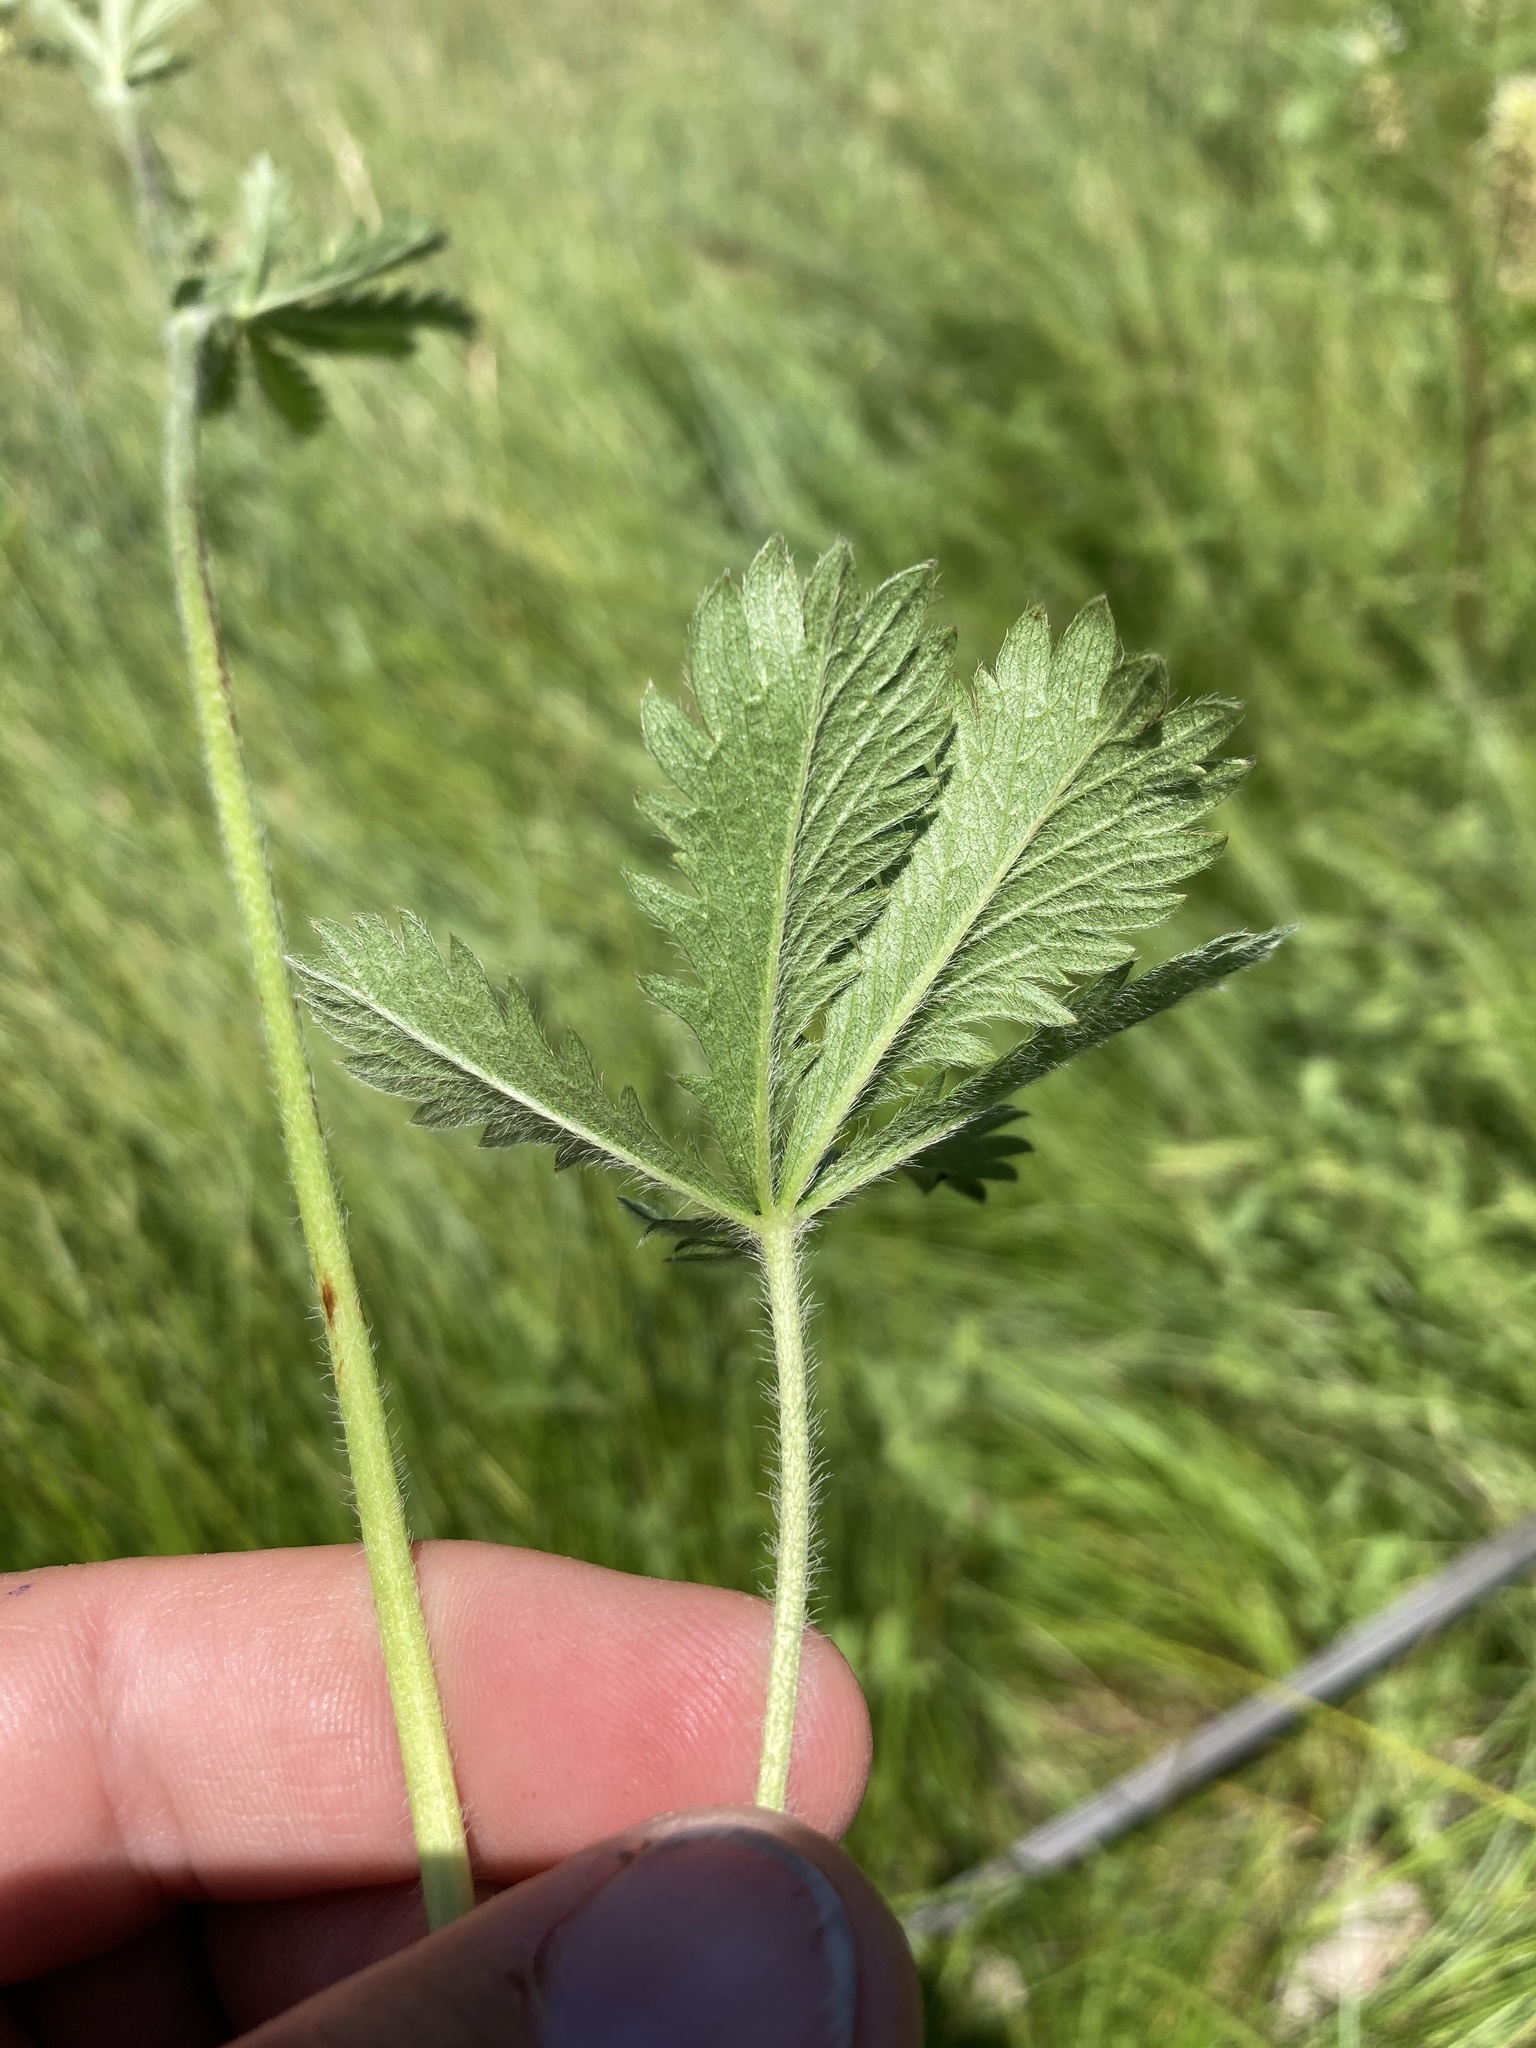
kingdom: Plantae
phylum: Tracheophyta
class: Magnoliopsida
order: Rosales
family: Rosaceae
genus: Potentilla
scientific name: Potentilla gracilis
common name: Graceful cinquefoil
